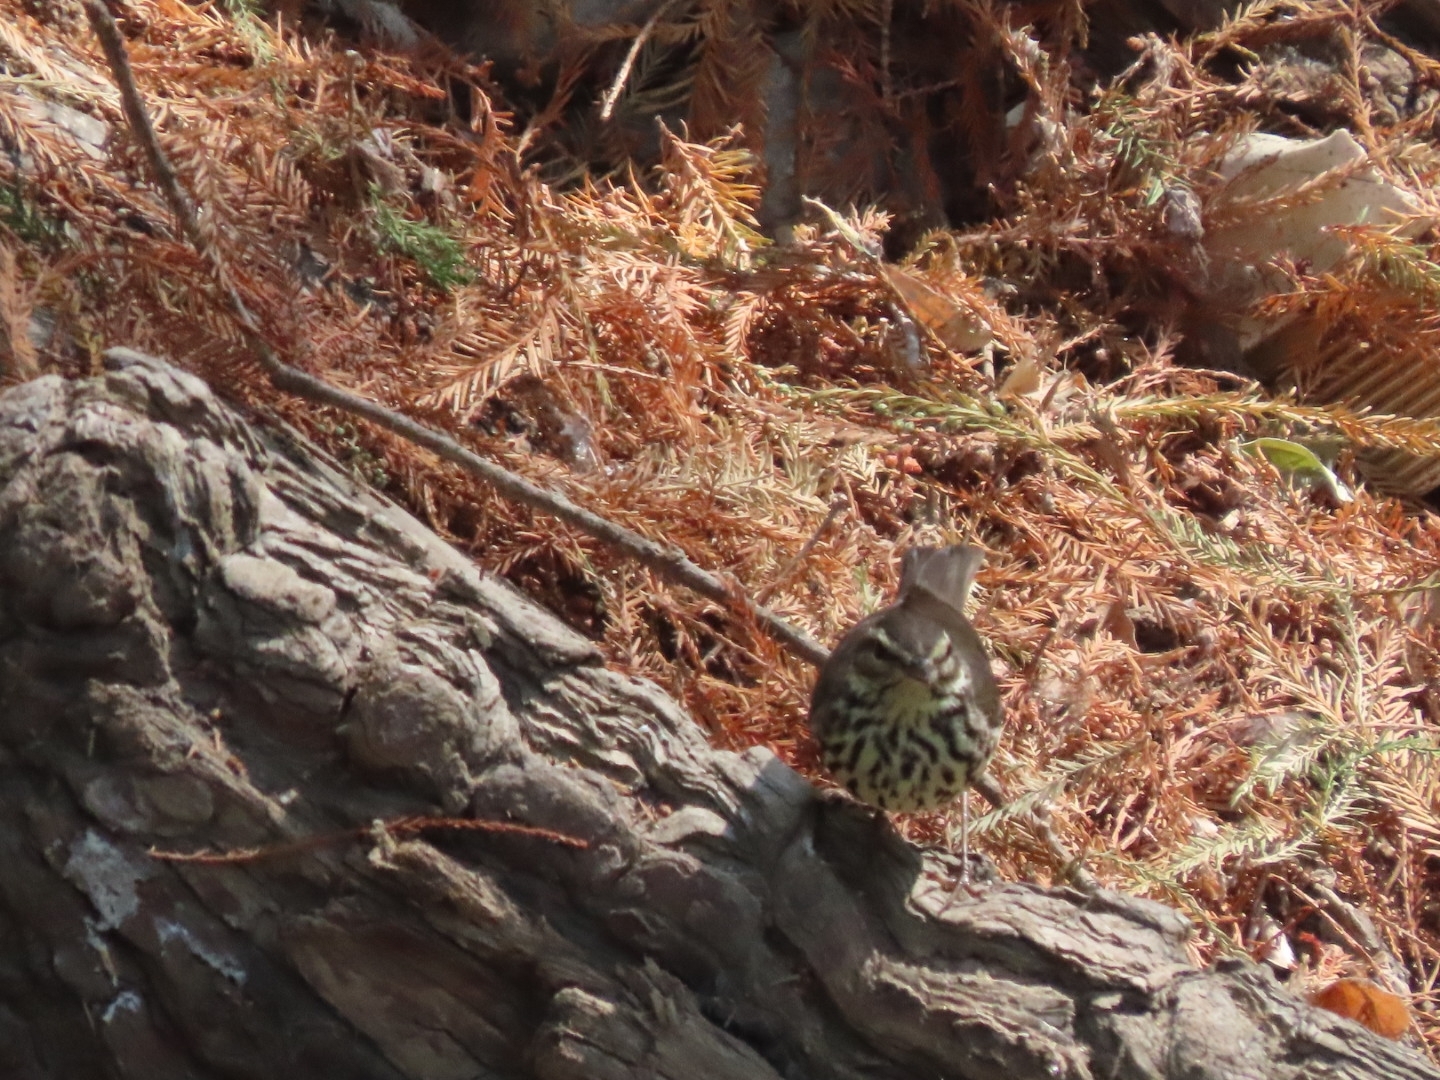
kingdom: Animalia
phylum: Chordata
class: Aves
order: Passeriformes
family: Parulidae
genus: Parkesia
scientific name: Parkesia noveboracensis
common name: Northern waterthrush
